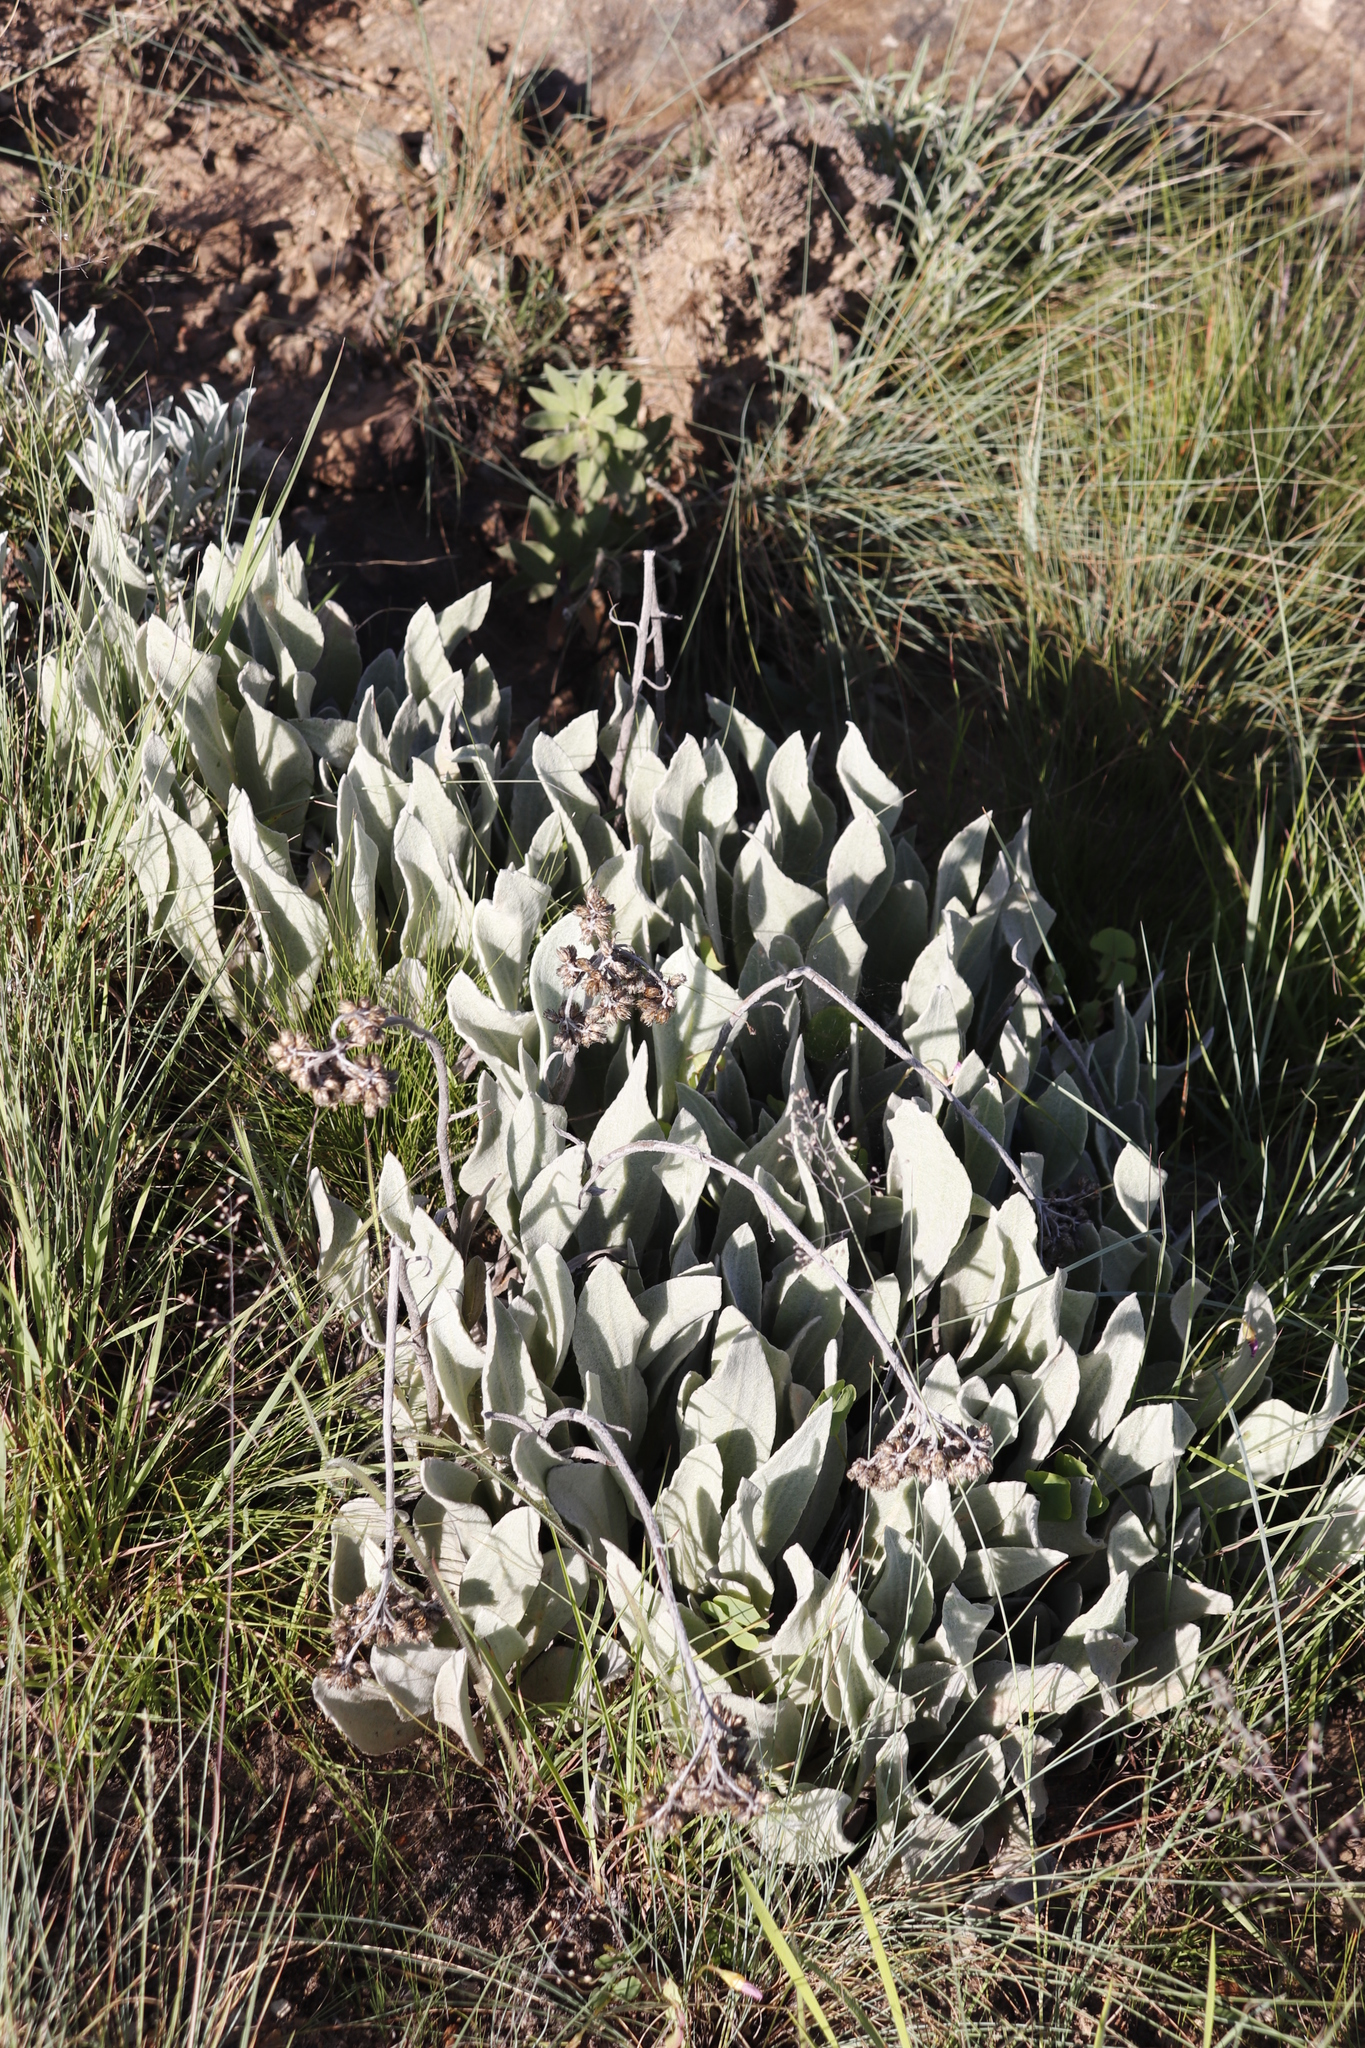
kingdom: Plantae
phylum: Tracheophyta
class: Magnoliopsida
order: Asterales
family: Asteraceae
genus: Helichrysum
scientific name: Helichrysum acutatum
